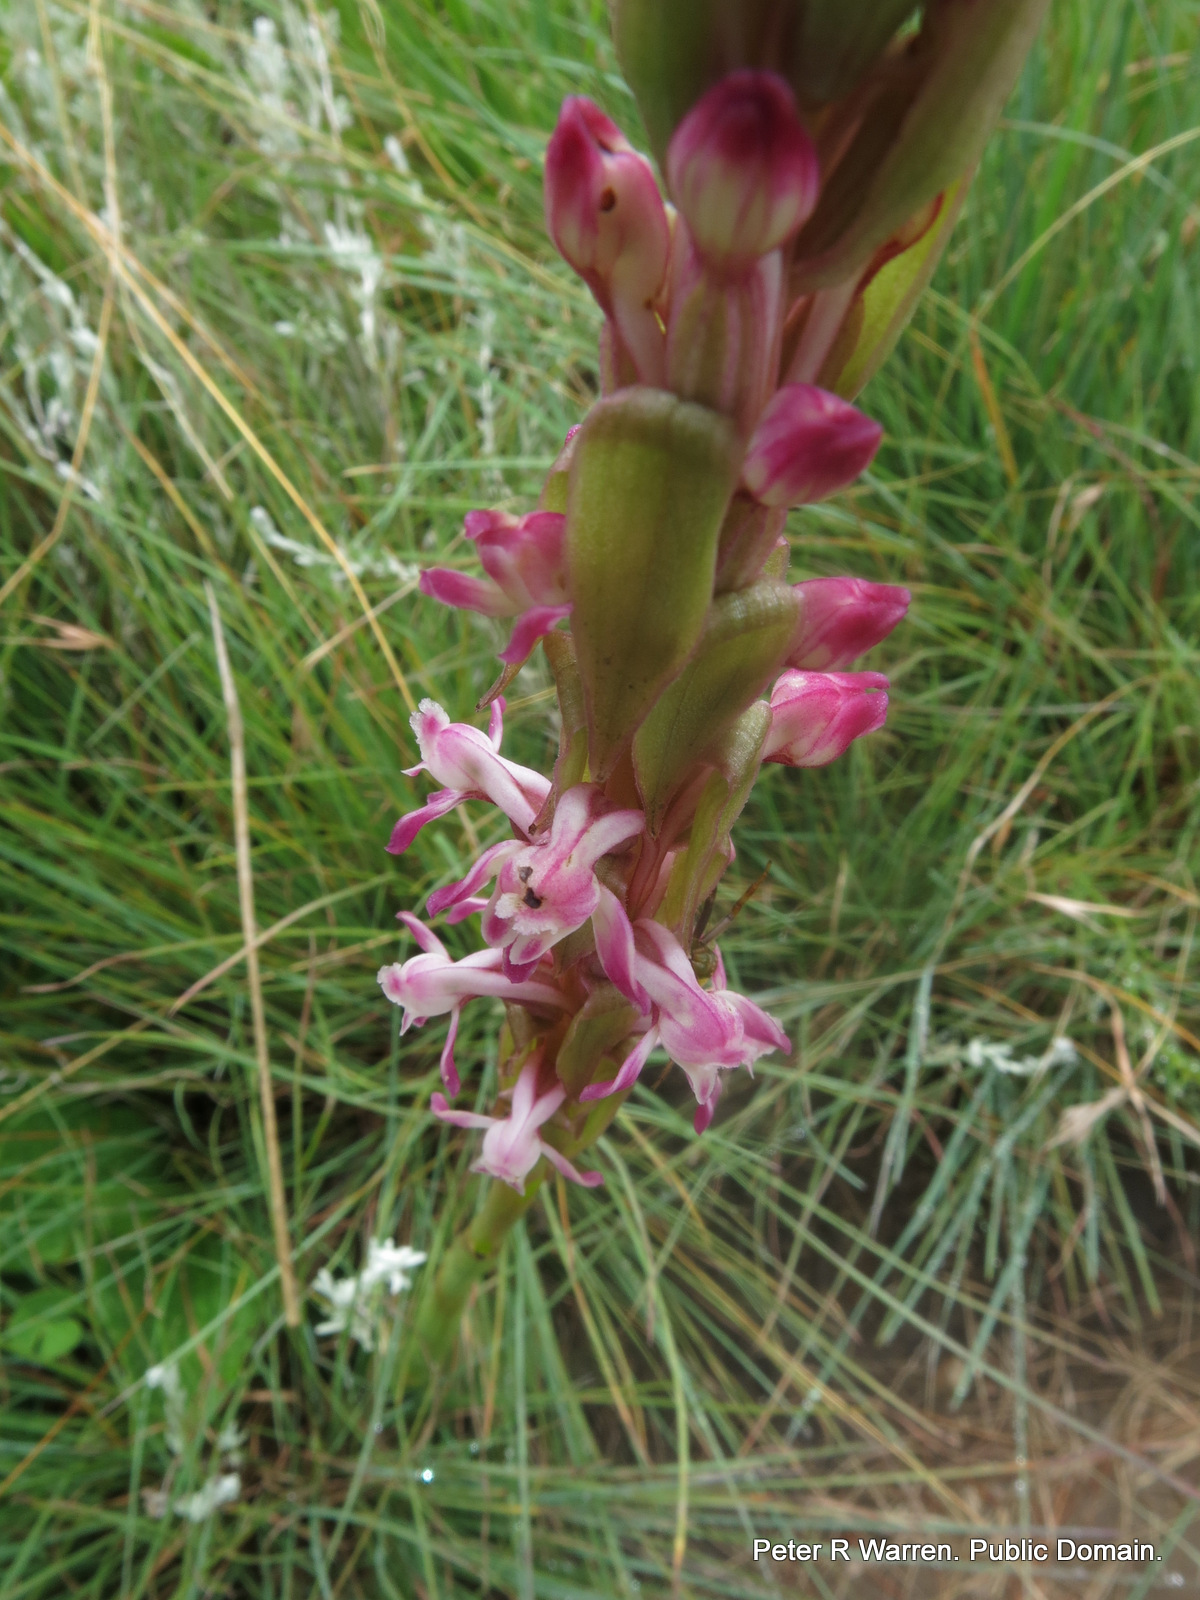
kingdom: Plantae
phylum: Tracheophyta
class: Liliopsida
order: Asparagales
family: Orchidaceae
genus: Satyrium
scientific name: Satyrium longicauda
